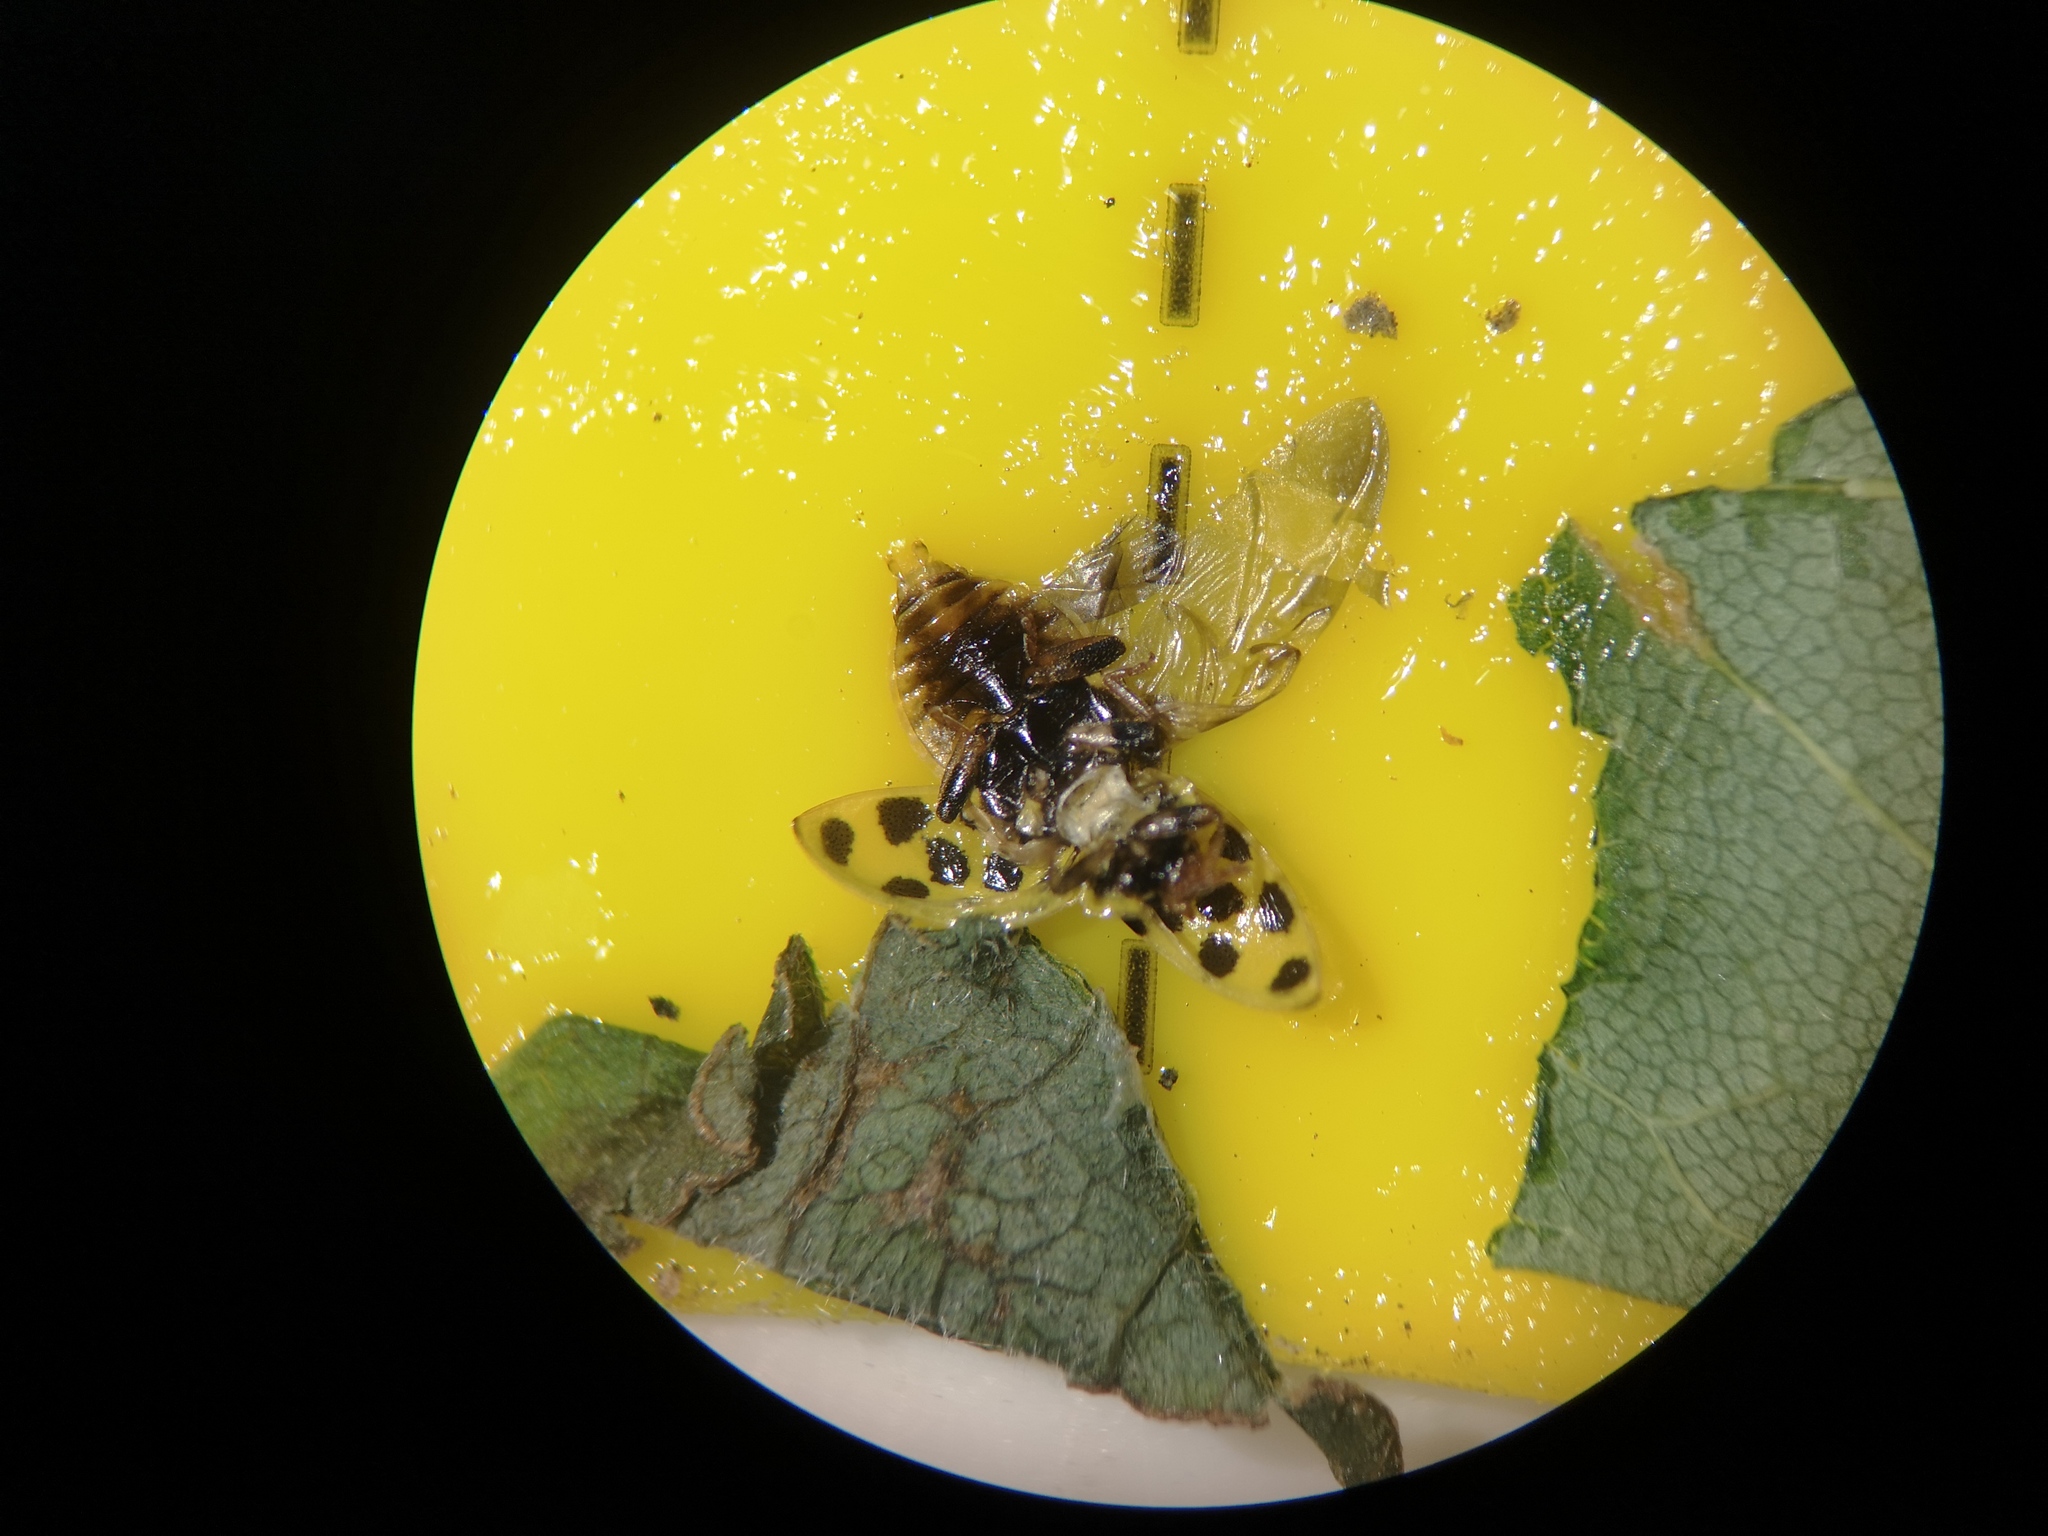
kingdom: Animalia
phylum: Arthropoda
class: Insecta
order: Coleoptera
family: Coccinellidae
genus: Psyllobora
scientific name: Psyllobora vigintiduopunctata
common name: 22-spot ladybird
